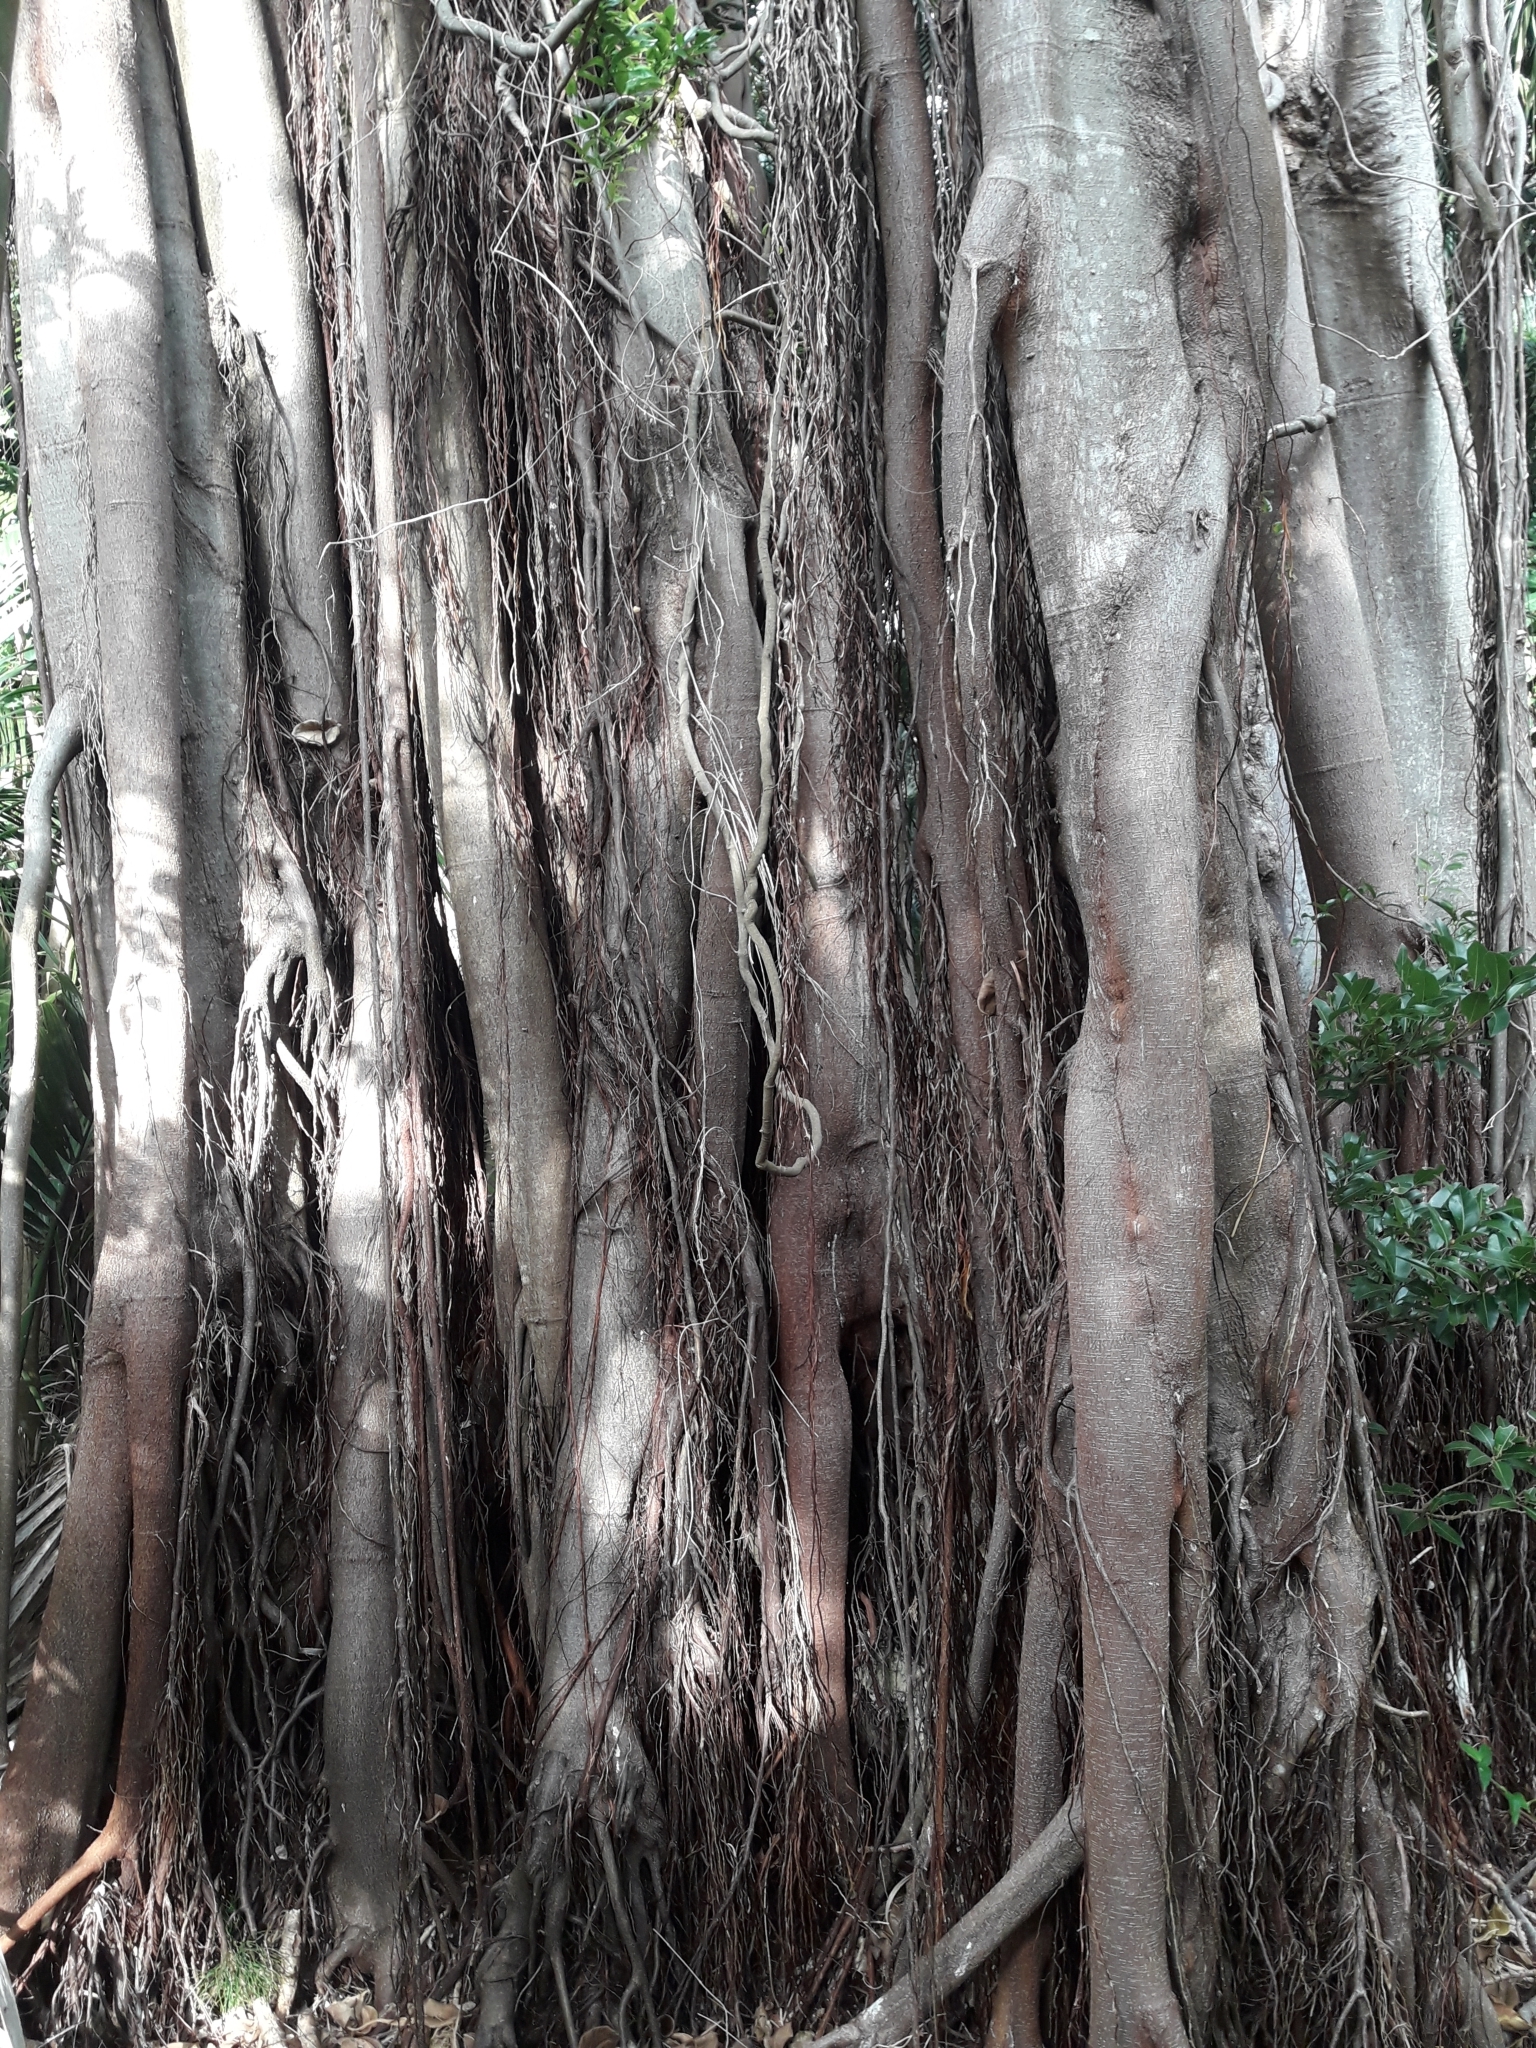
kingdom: Plantae
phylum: Tracheophyta
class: Magnoliopsida
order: Rosales
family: Moraceae
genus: Ficus
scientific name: Ficus macrophylla
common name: Moreton bay fig
